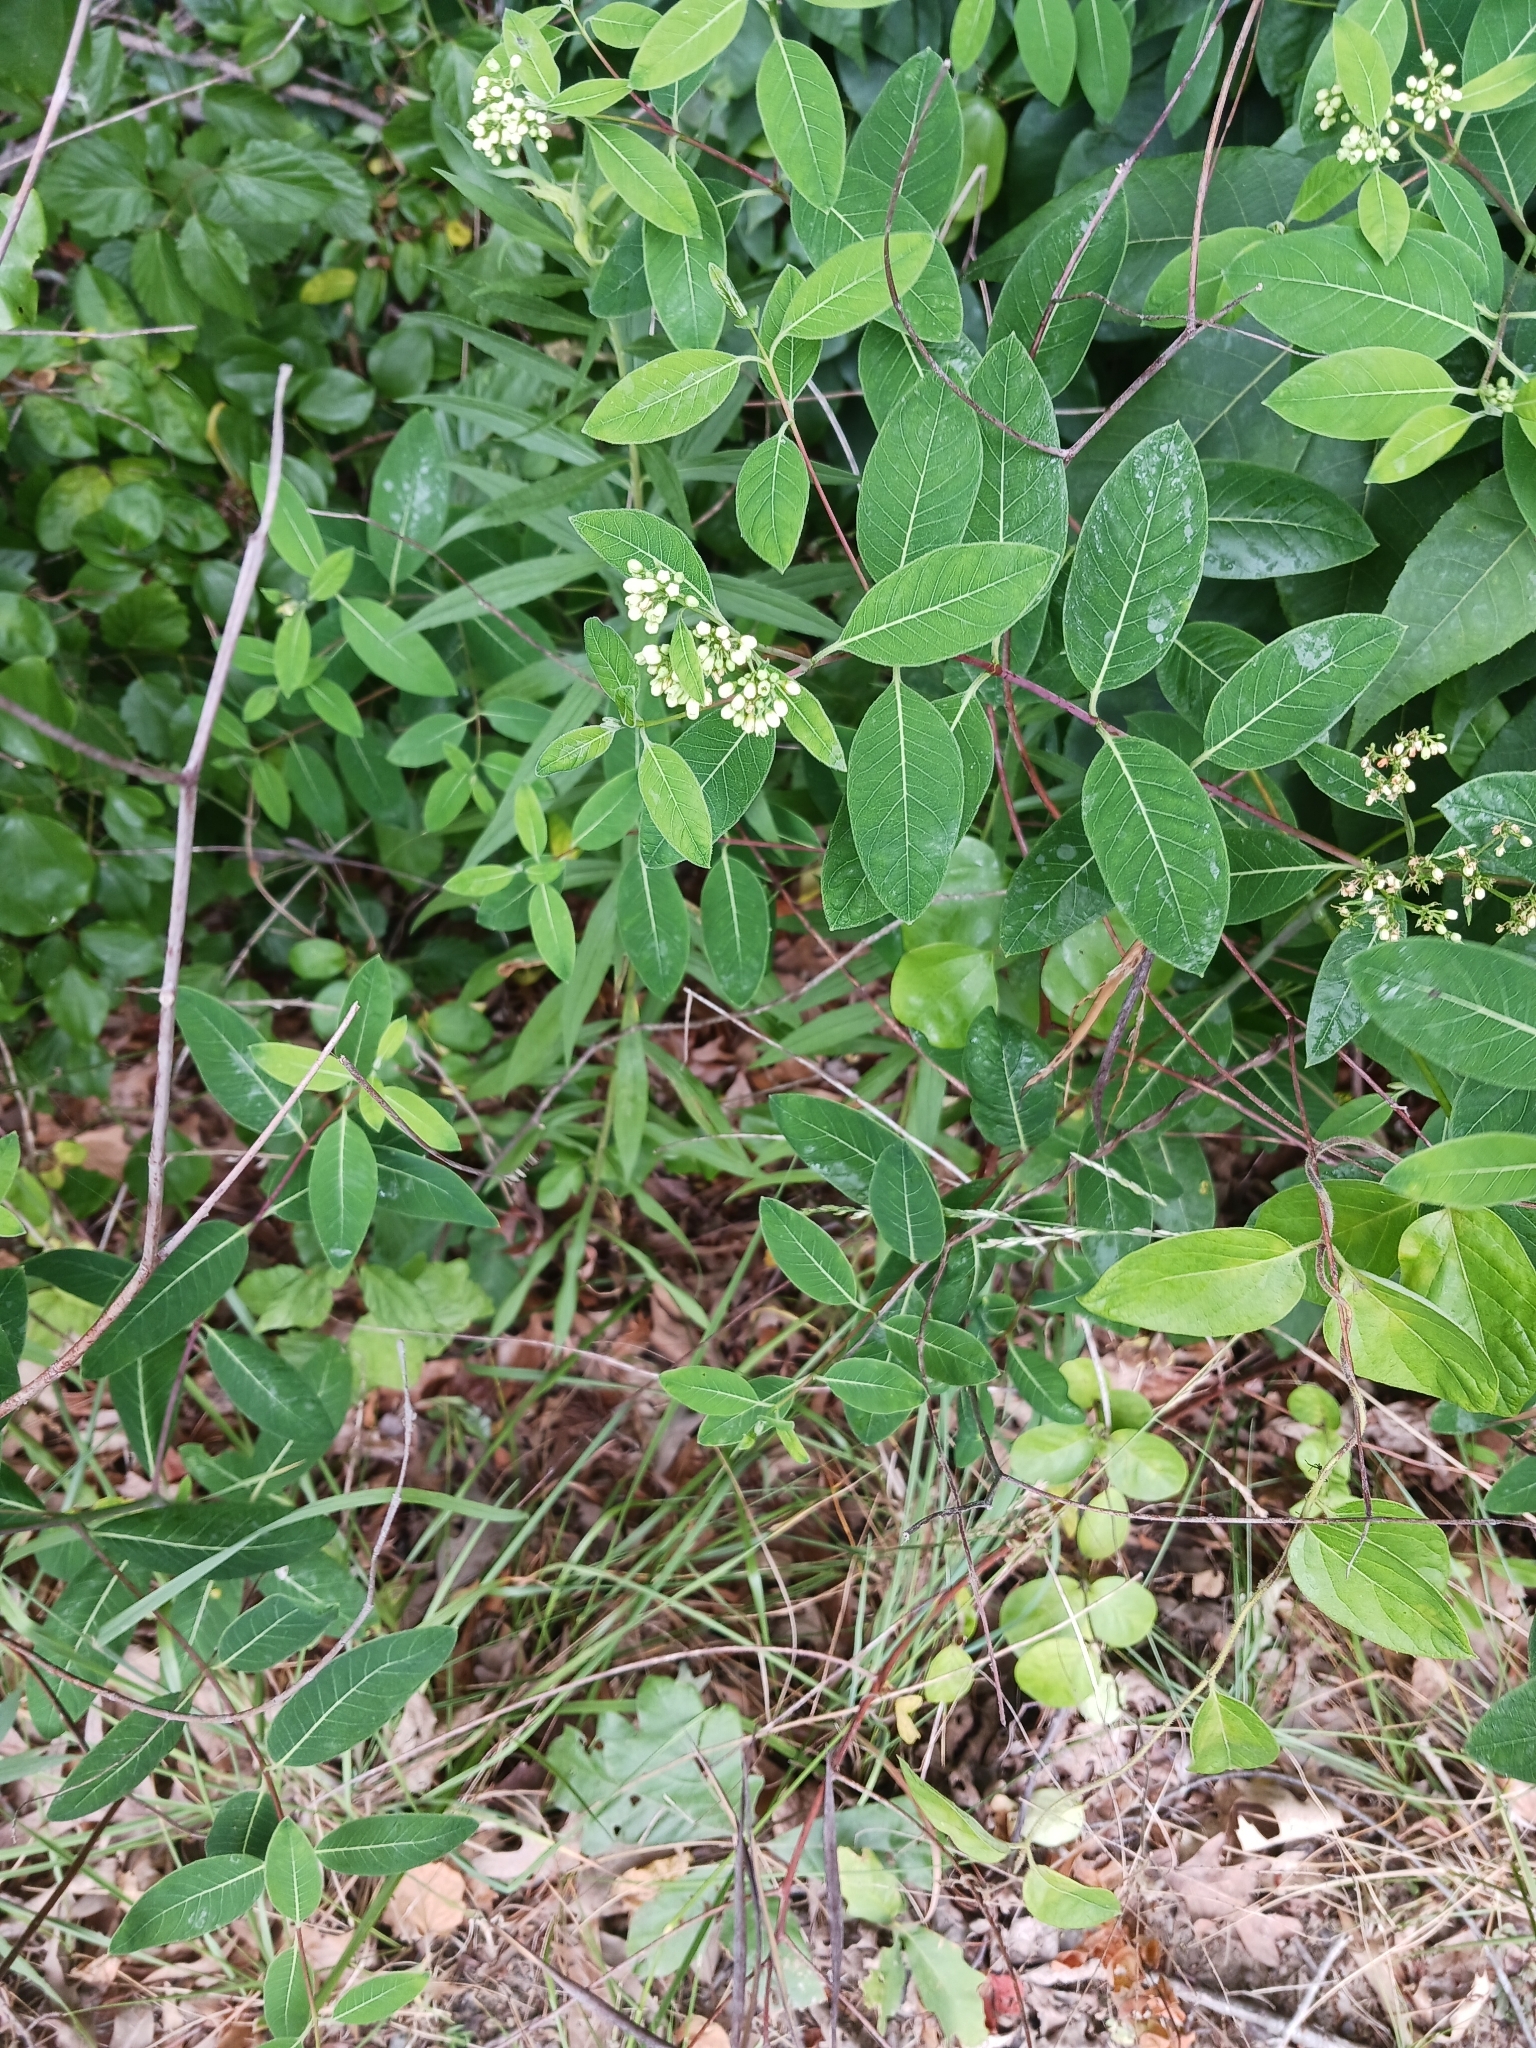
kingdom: Plantae
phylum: Tracheophyta
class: Magnoliopsida
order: Gentianales
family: Apocynaceae
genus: Apocynum
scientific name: Apocynum cannabinum
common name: Hemp dogbane
